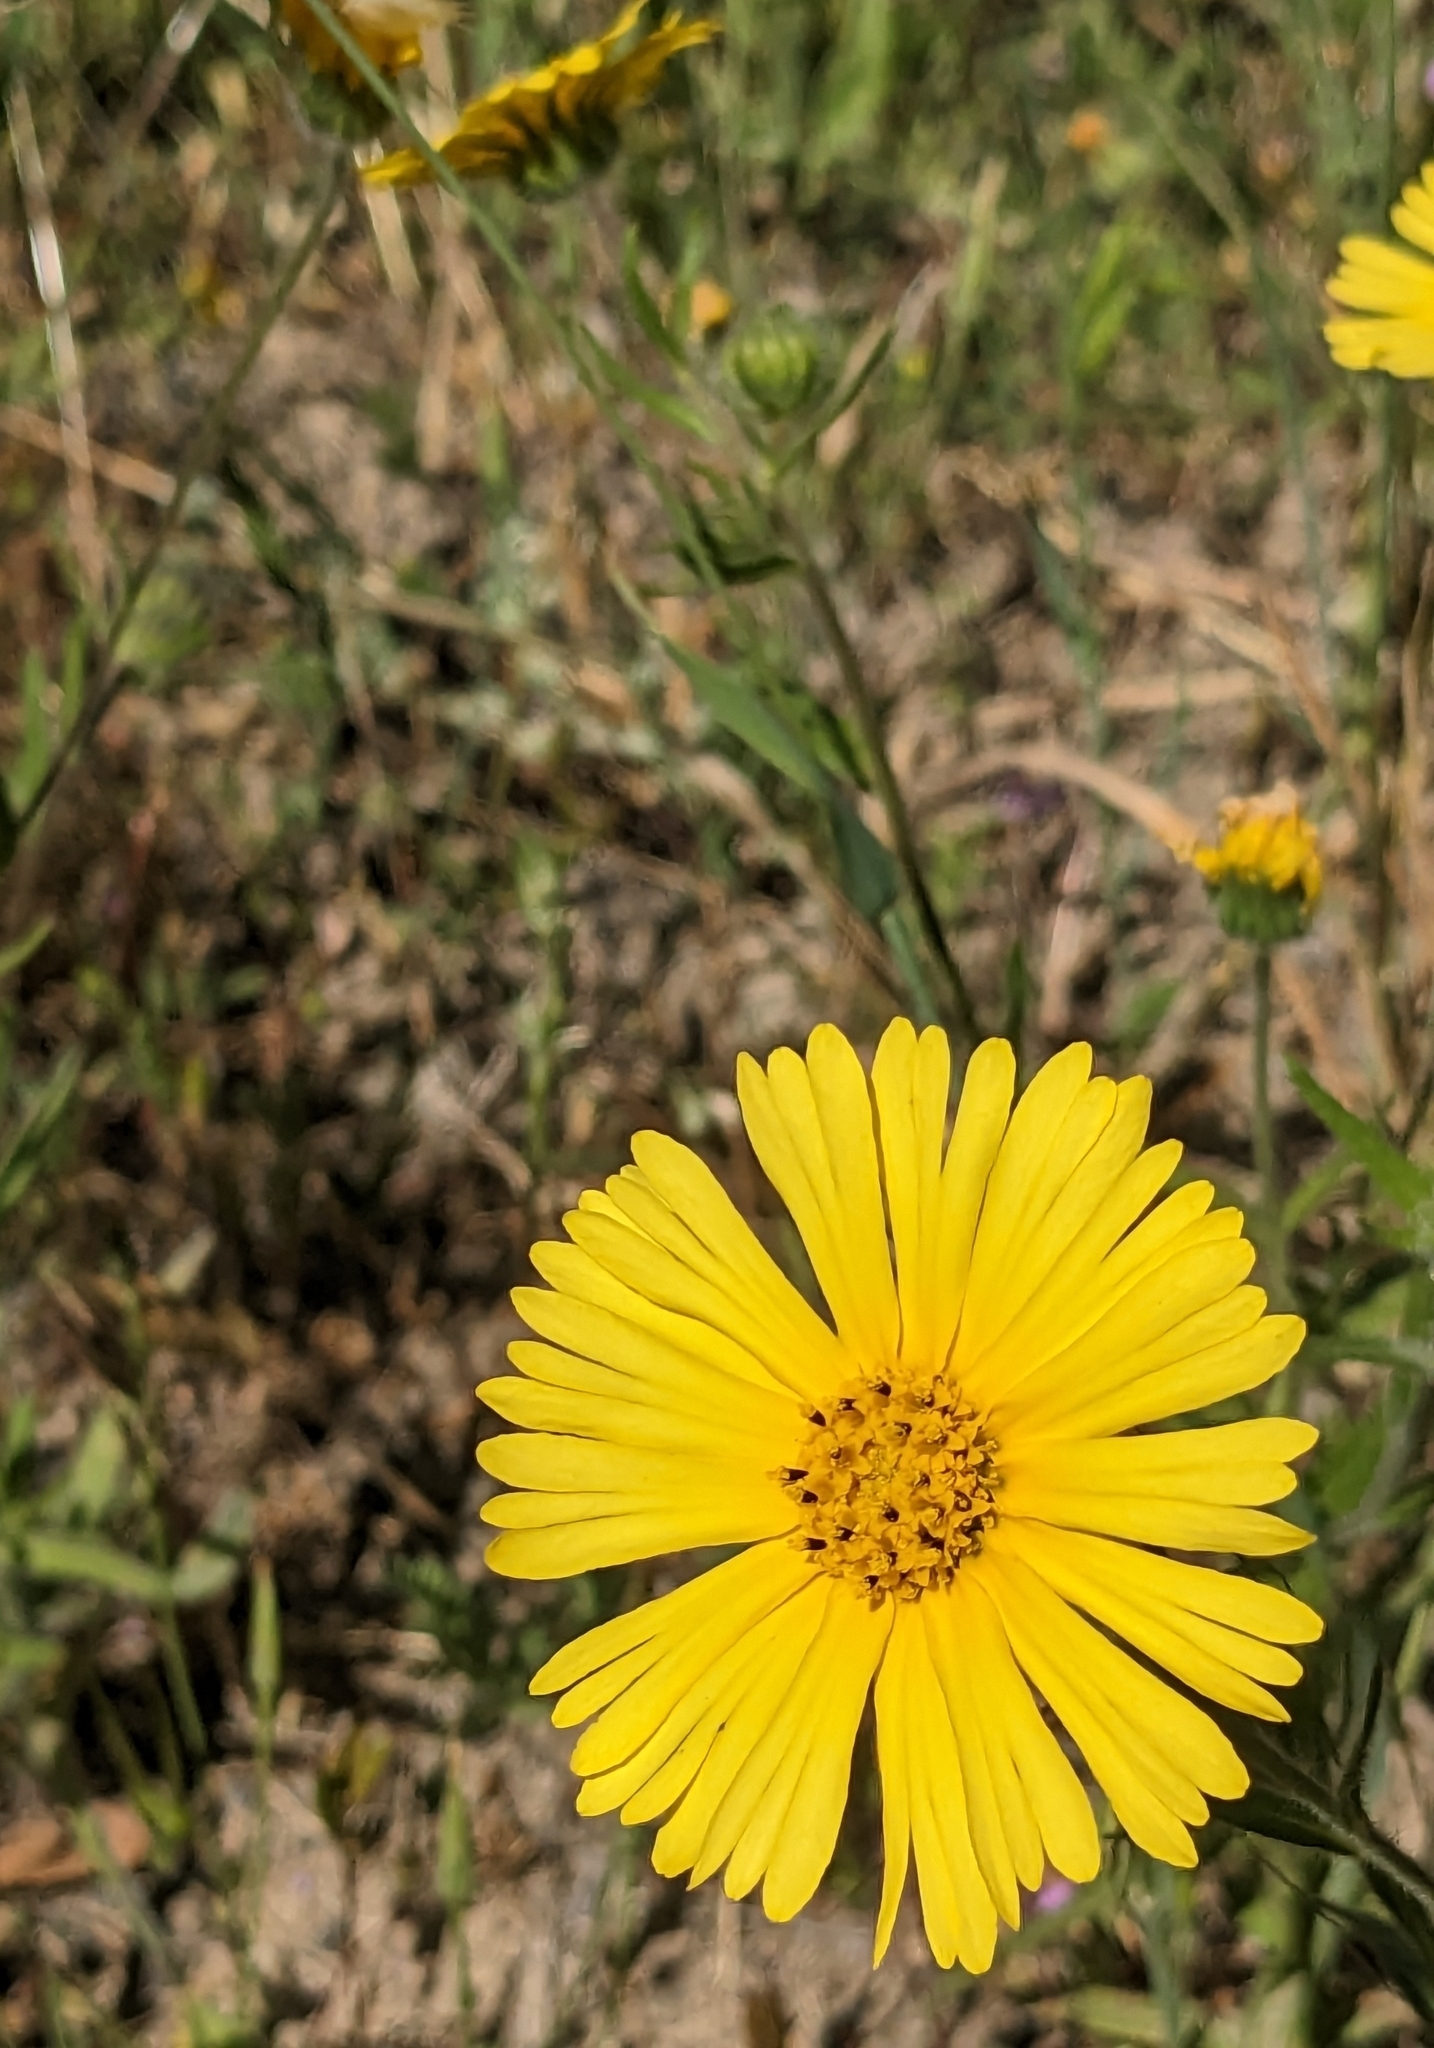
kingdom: Plantae
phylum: Tracheophyta
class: Magnoliopsida
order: Asterales
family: Asteraceae
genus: Madia
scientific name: Madia elegans
